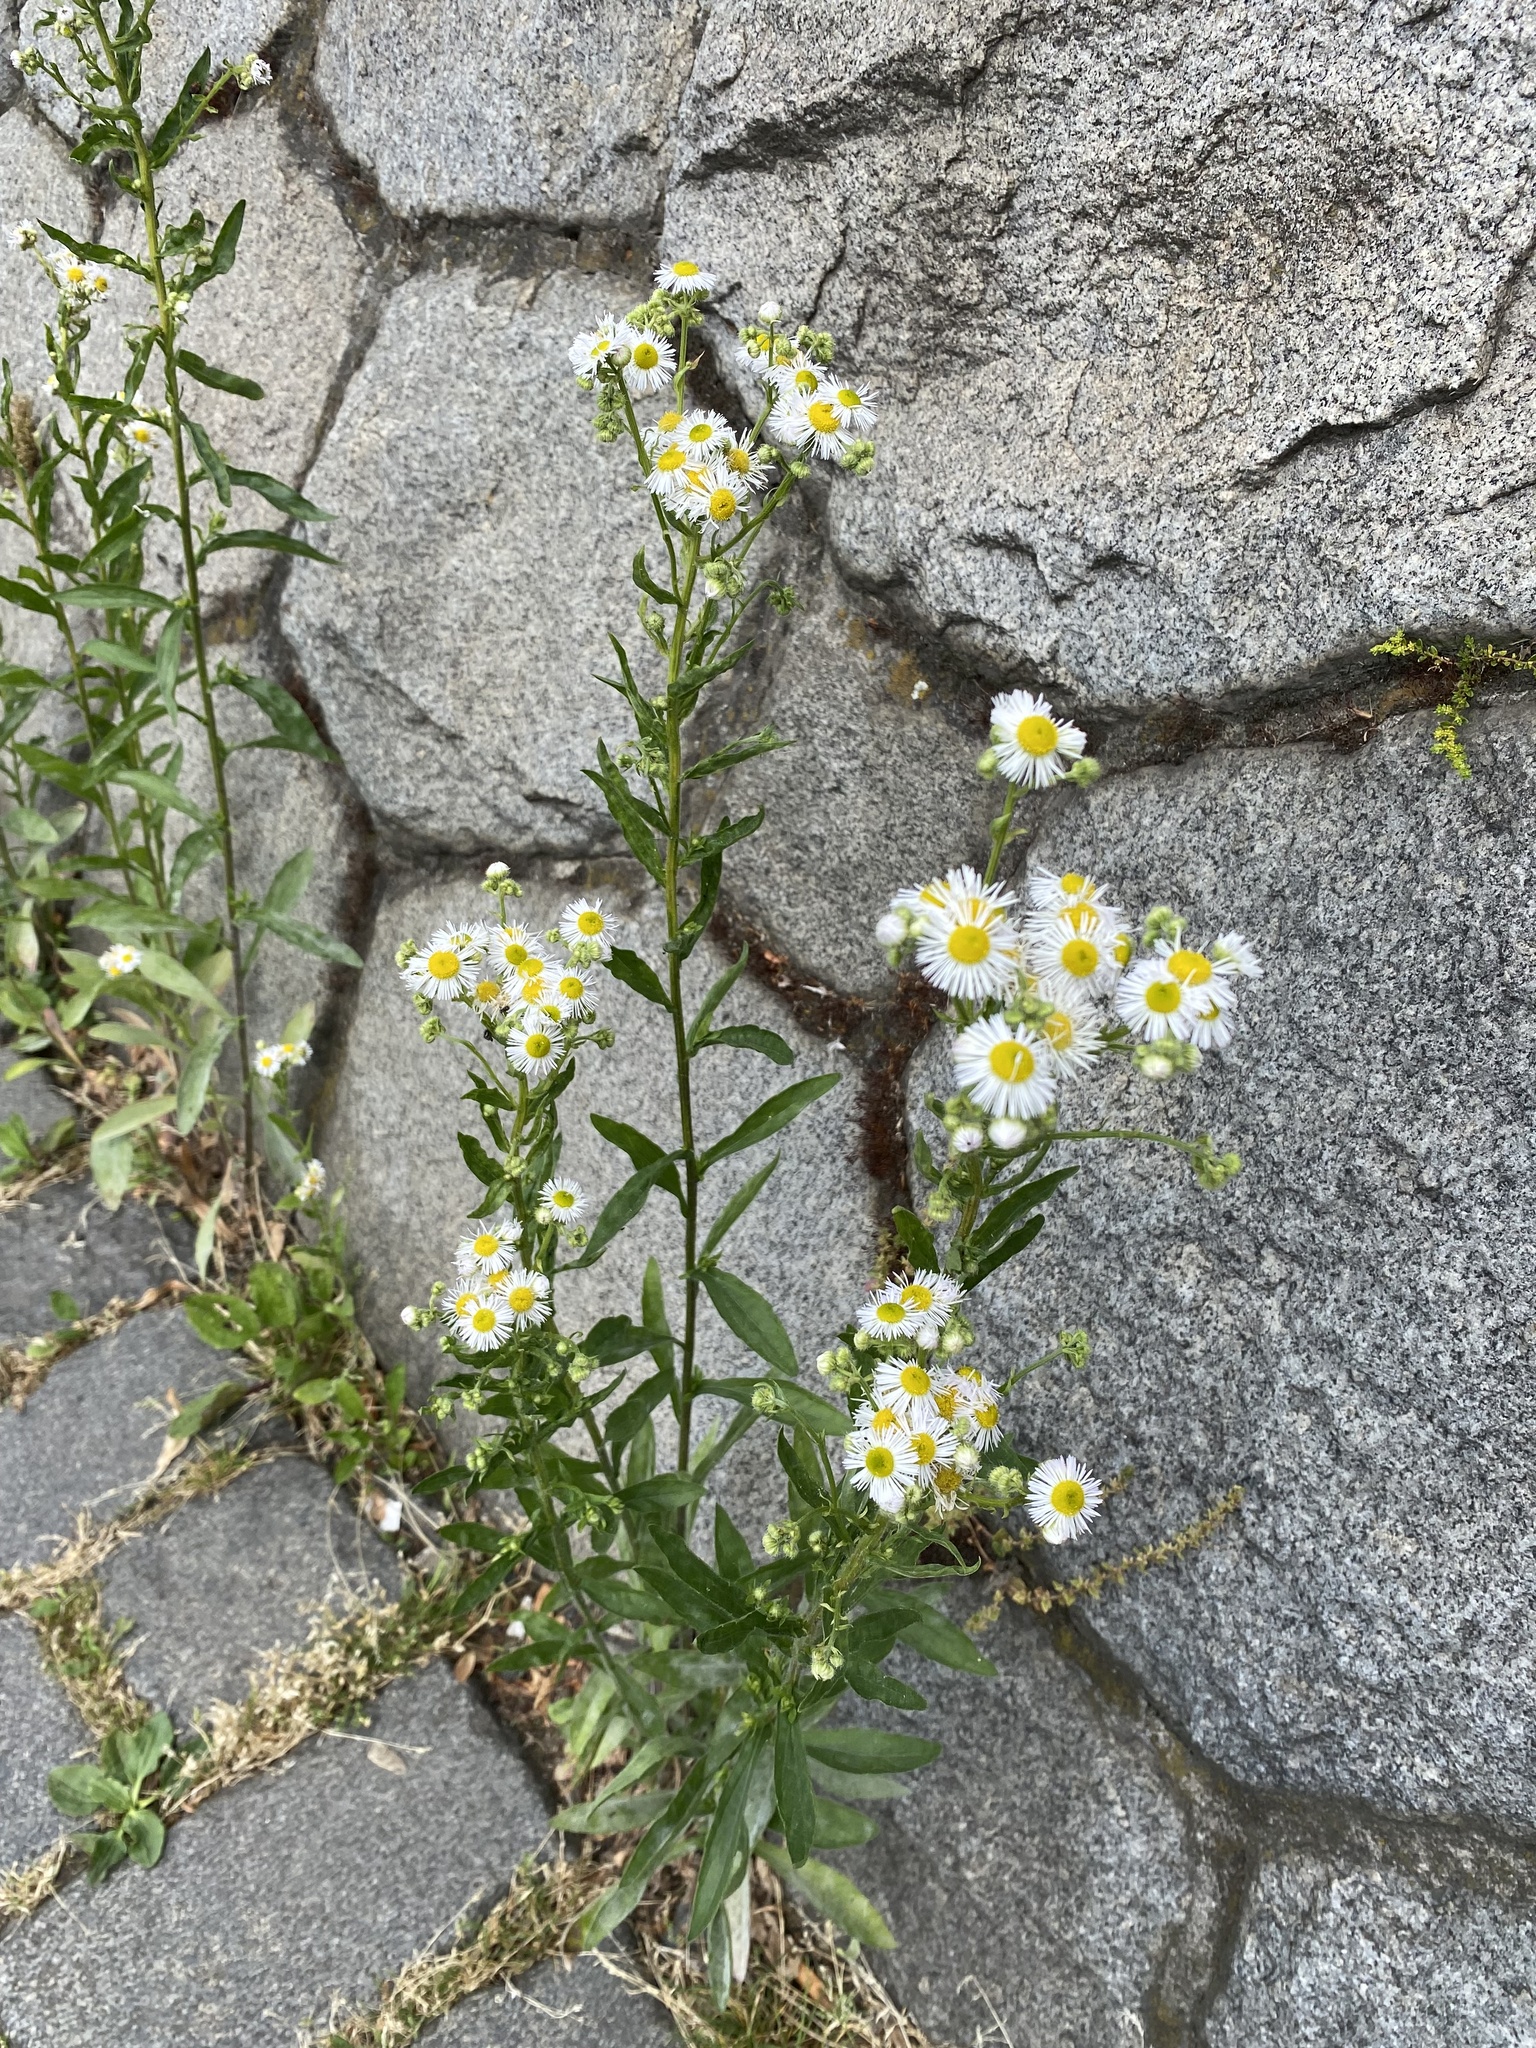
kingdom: Plantae
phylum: Tracheophyta
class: Magnoliopsida
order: Asterales
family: Asteraceae
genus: Erigeron
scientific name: Erigeron annuus
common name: Tall fleabane
